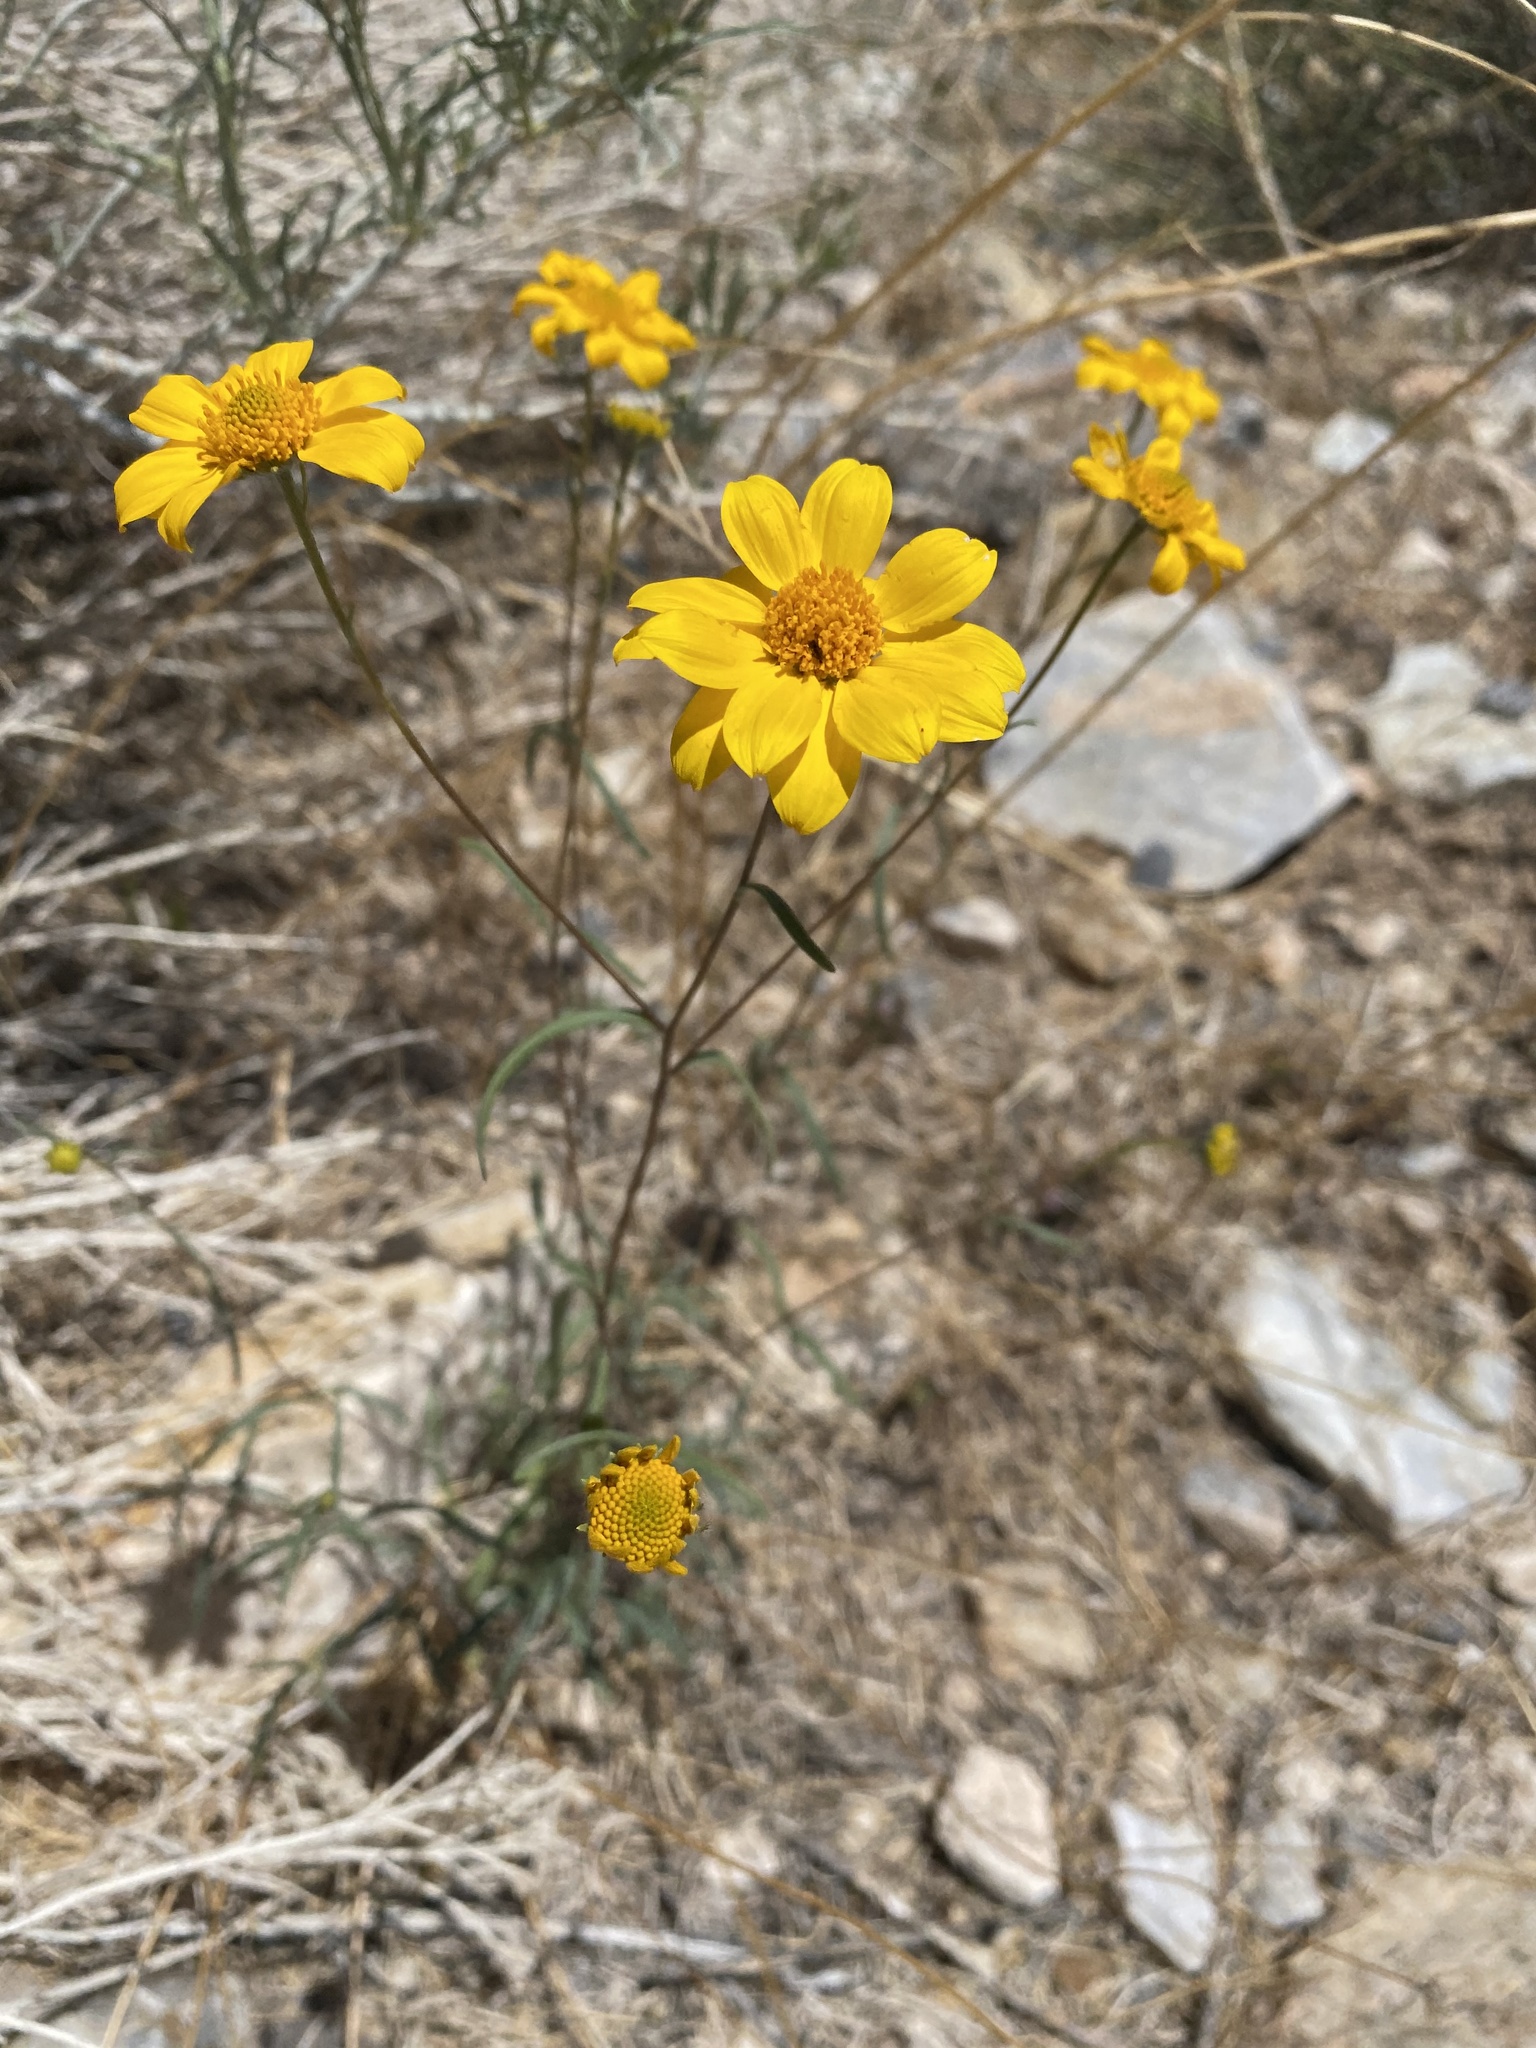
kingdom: Plantae
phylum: Tracheophyta
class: Magnoliopsida
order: Asterales
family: Asteraceae
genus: Heliomeris
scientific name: Heliomeris multiflora
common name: Showy goldeneye
